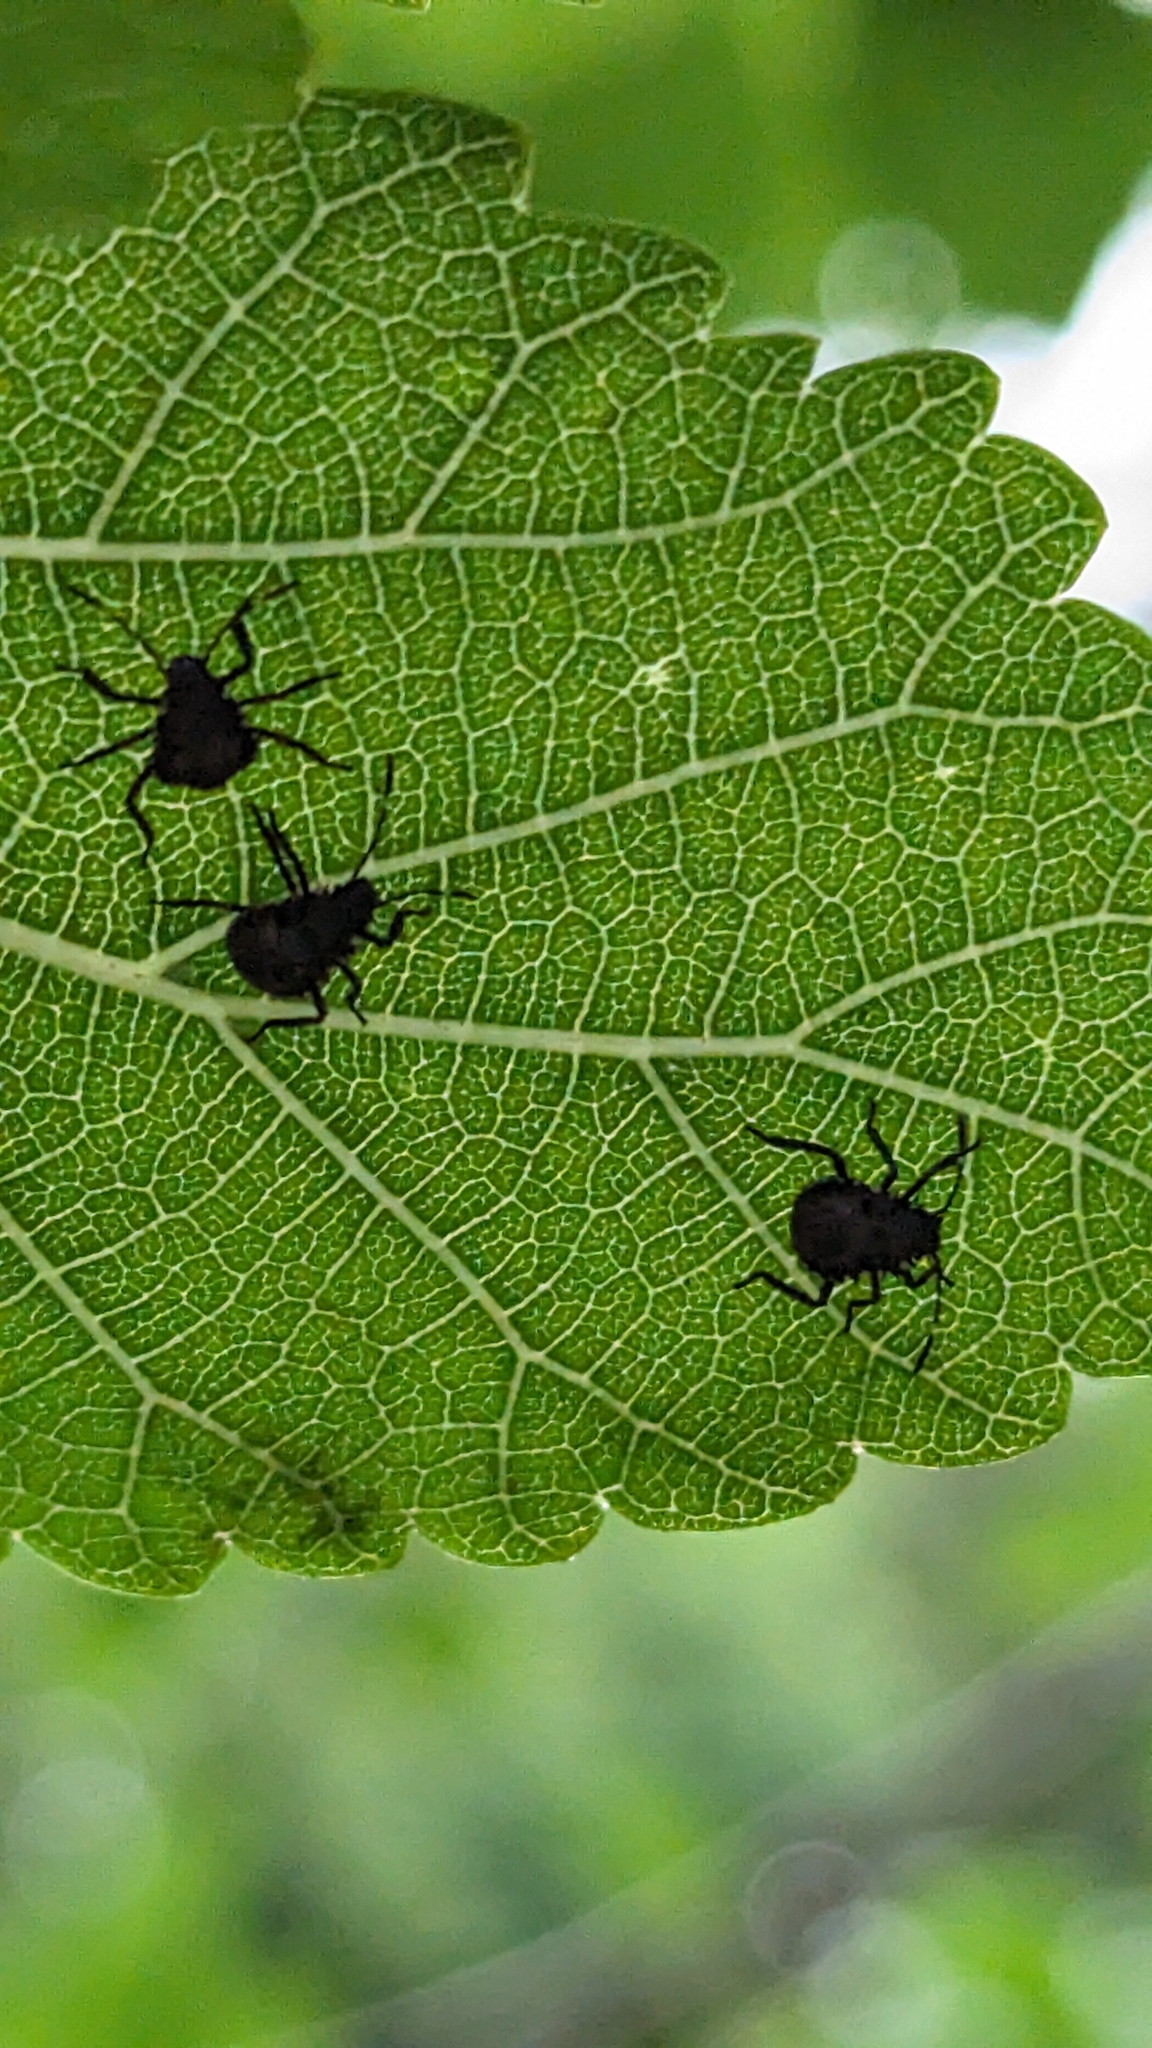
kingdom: Animalia
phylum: Arthropoda
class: Insecta
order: Hemiptera
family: Pentatomidae
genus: Halyomorpha
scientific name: Halyomorpha halys
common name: Brown marmorated stink bug
